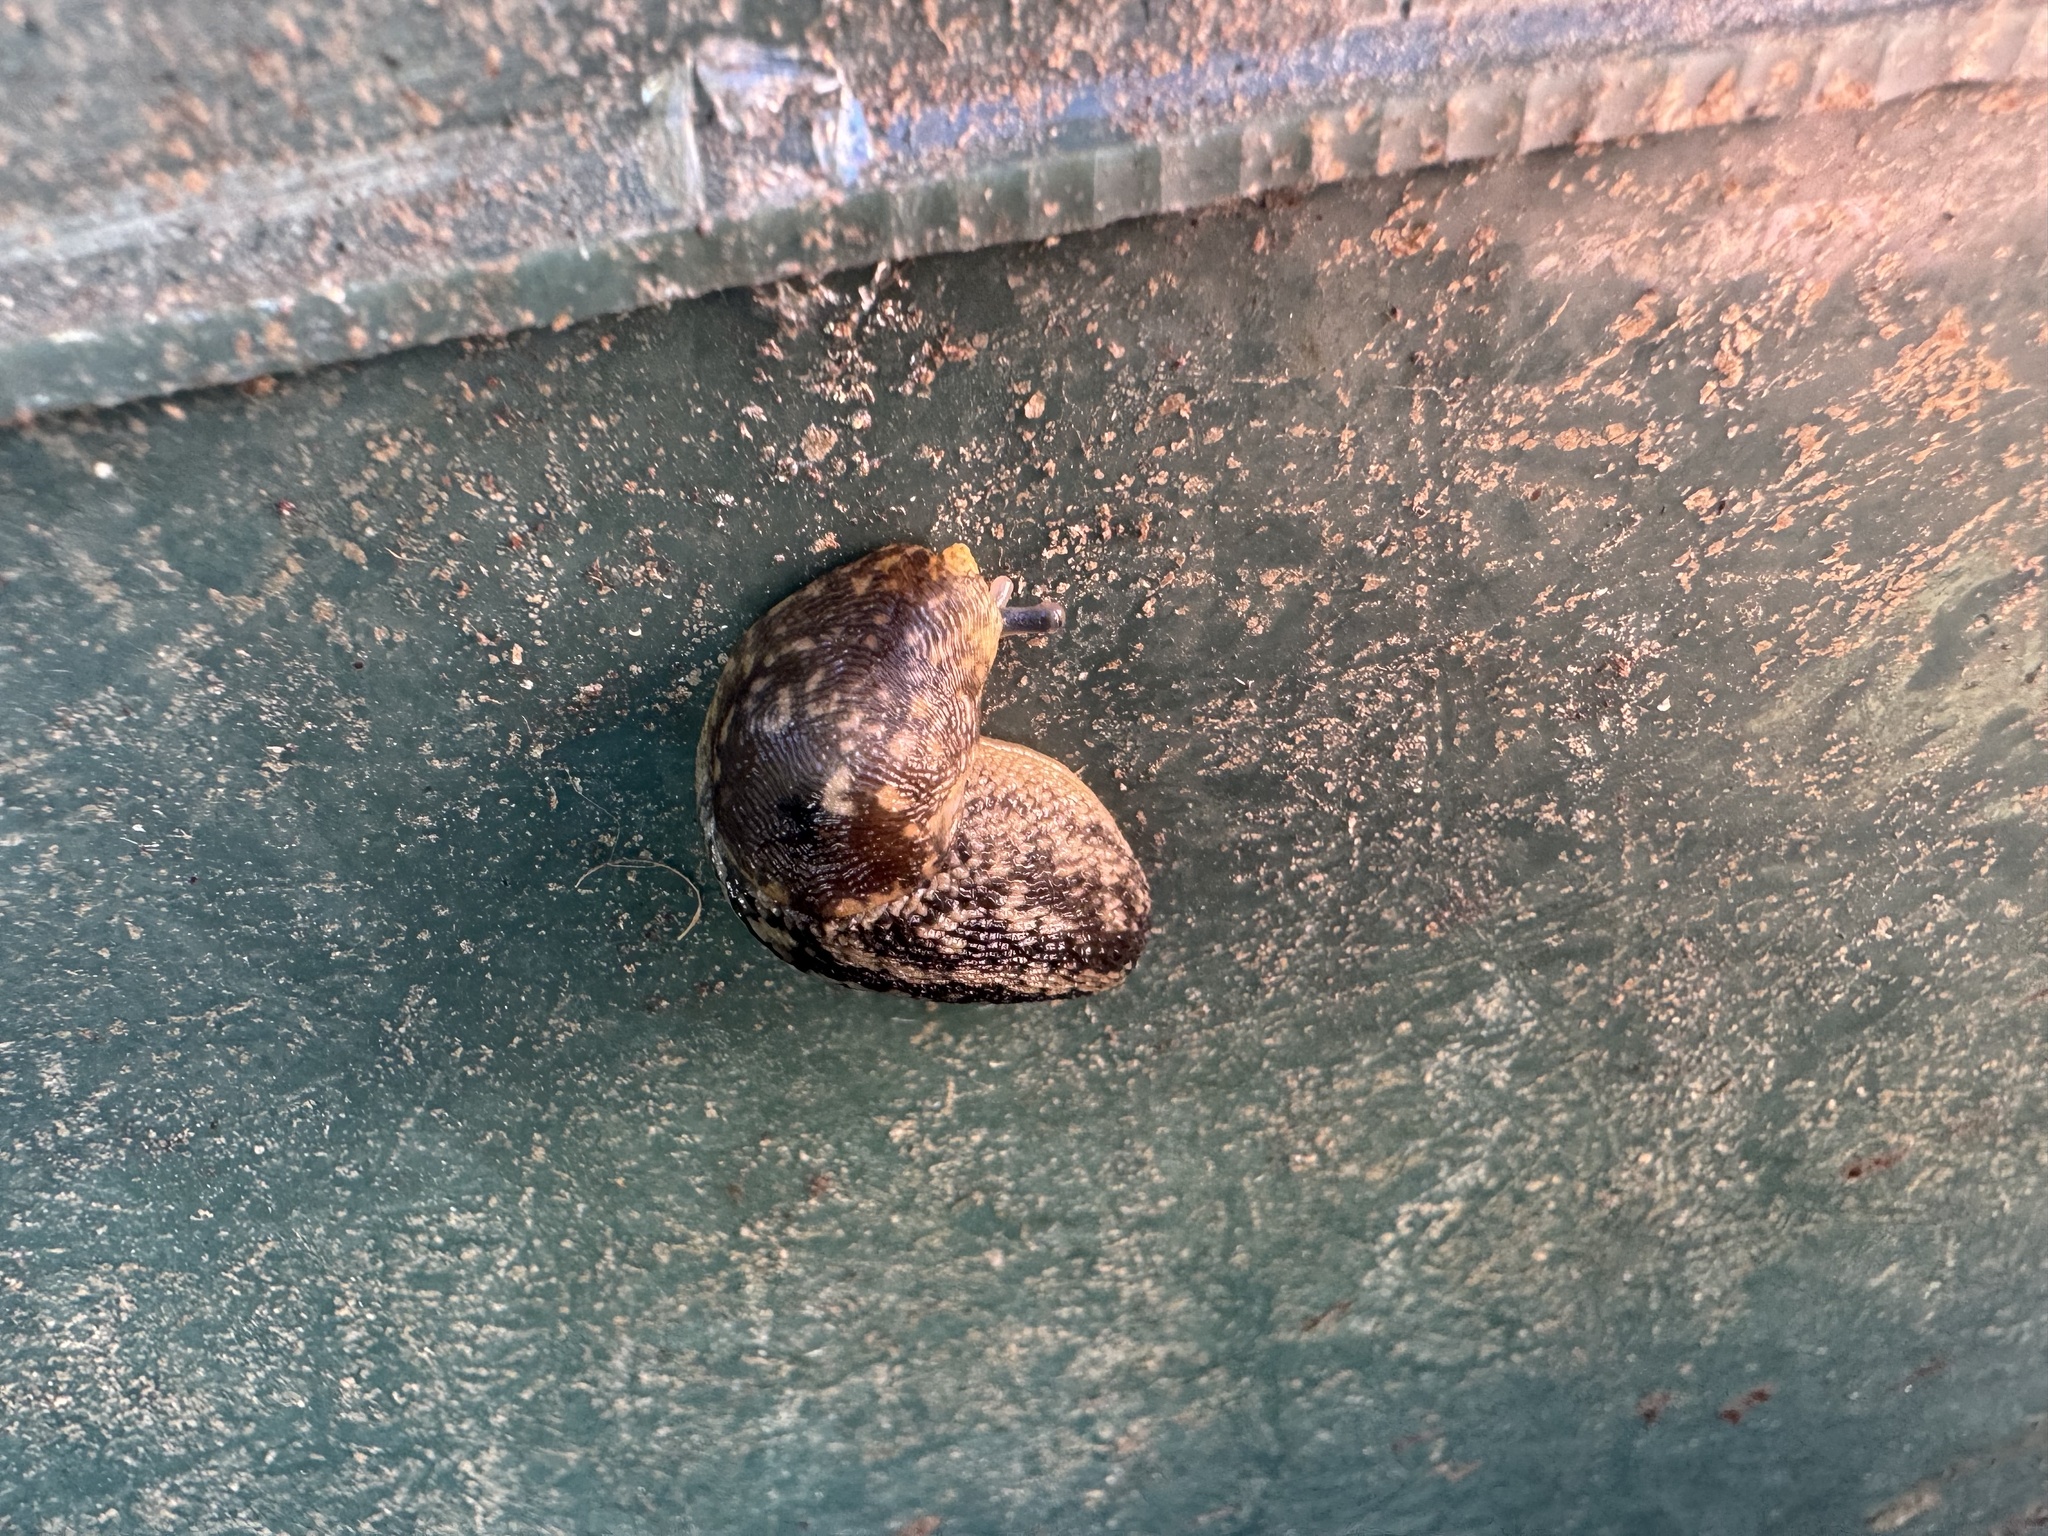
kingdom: Animalia
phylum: Mollusca
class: Gastropoda
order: Stylommatophora
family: Limacidae
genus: Limacus
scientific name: Limacus flavus
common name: Yellow gardenslug
